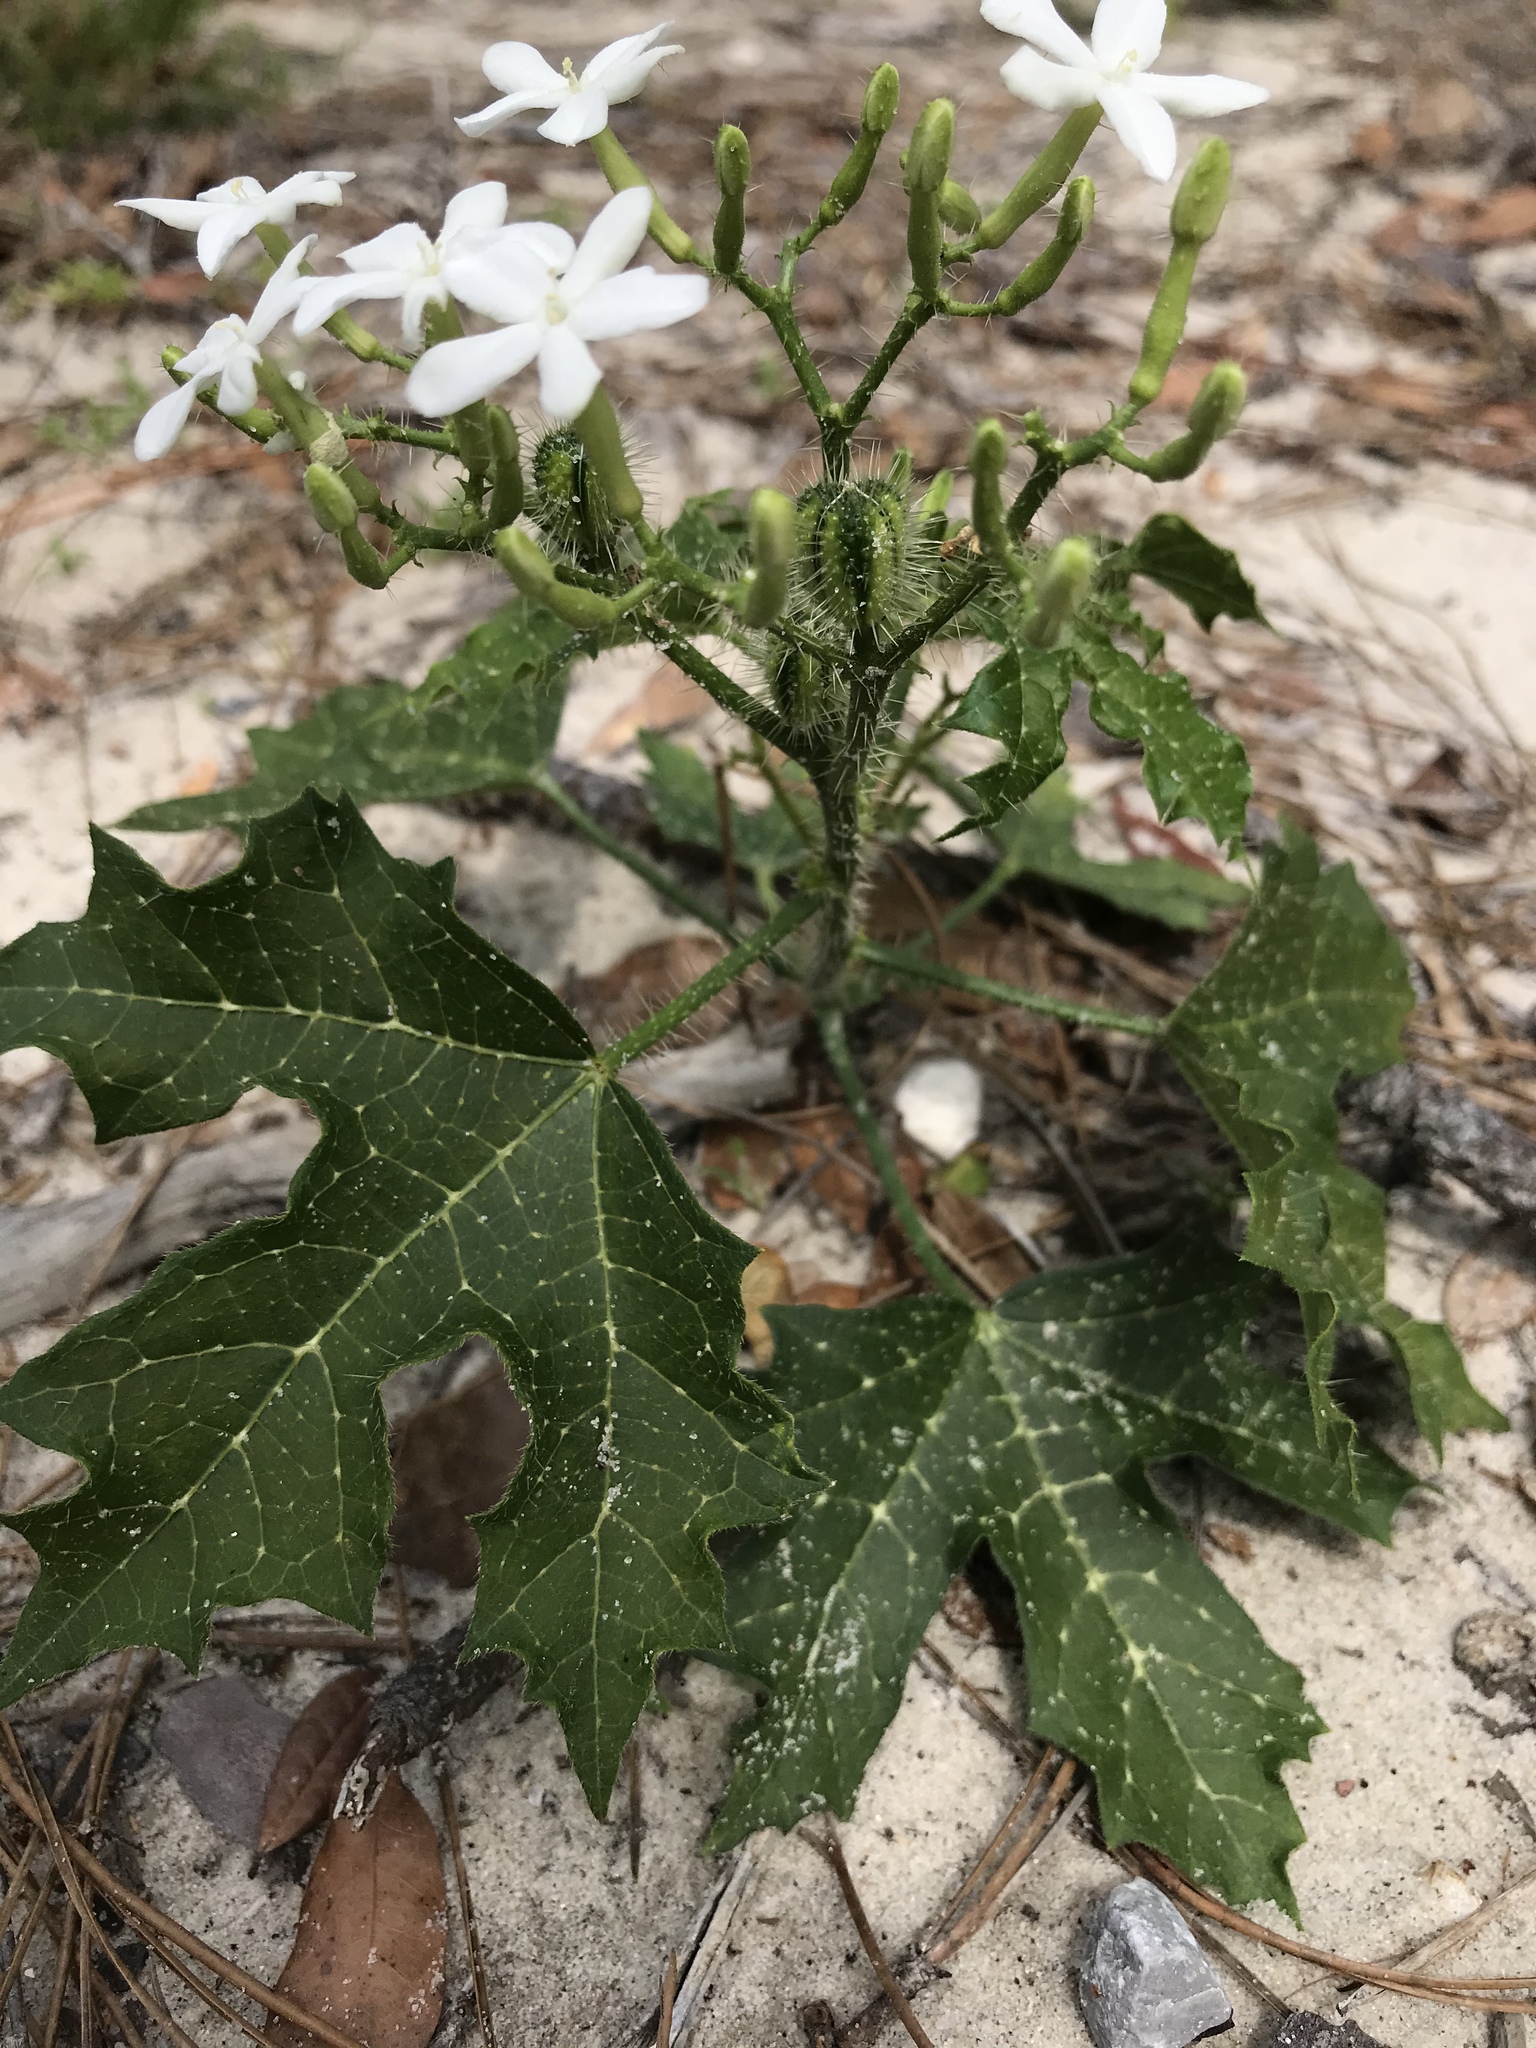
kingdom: Plantae
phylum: Tracheophyta
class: Magnoliopsida
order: Malpighiales
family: Euphorbiaceae
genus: Cnidoscolus
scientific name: Cnidoscolus stimulosus
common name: Bull-nettle
